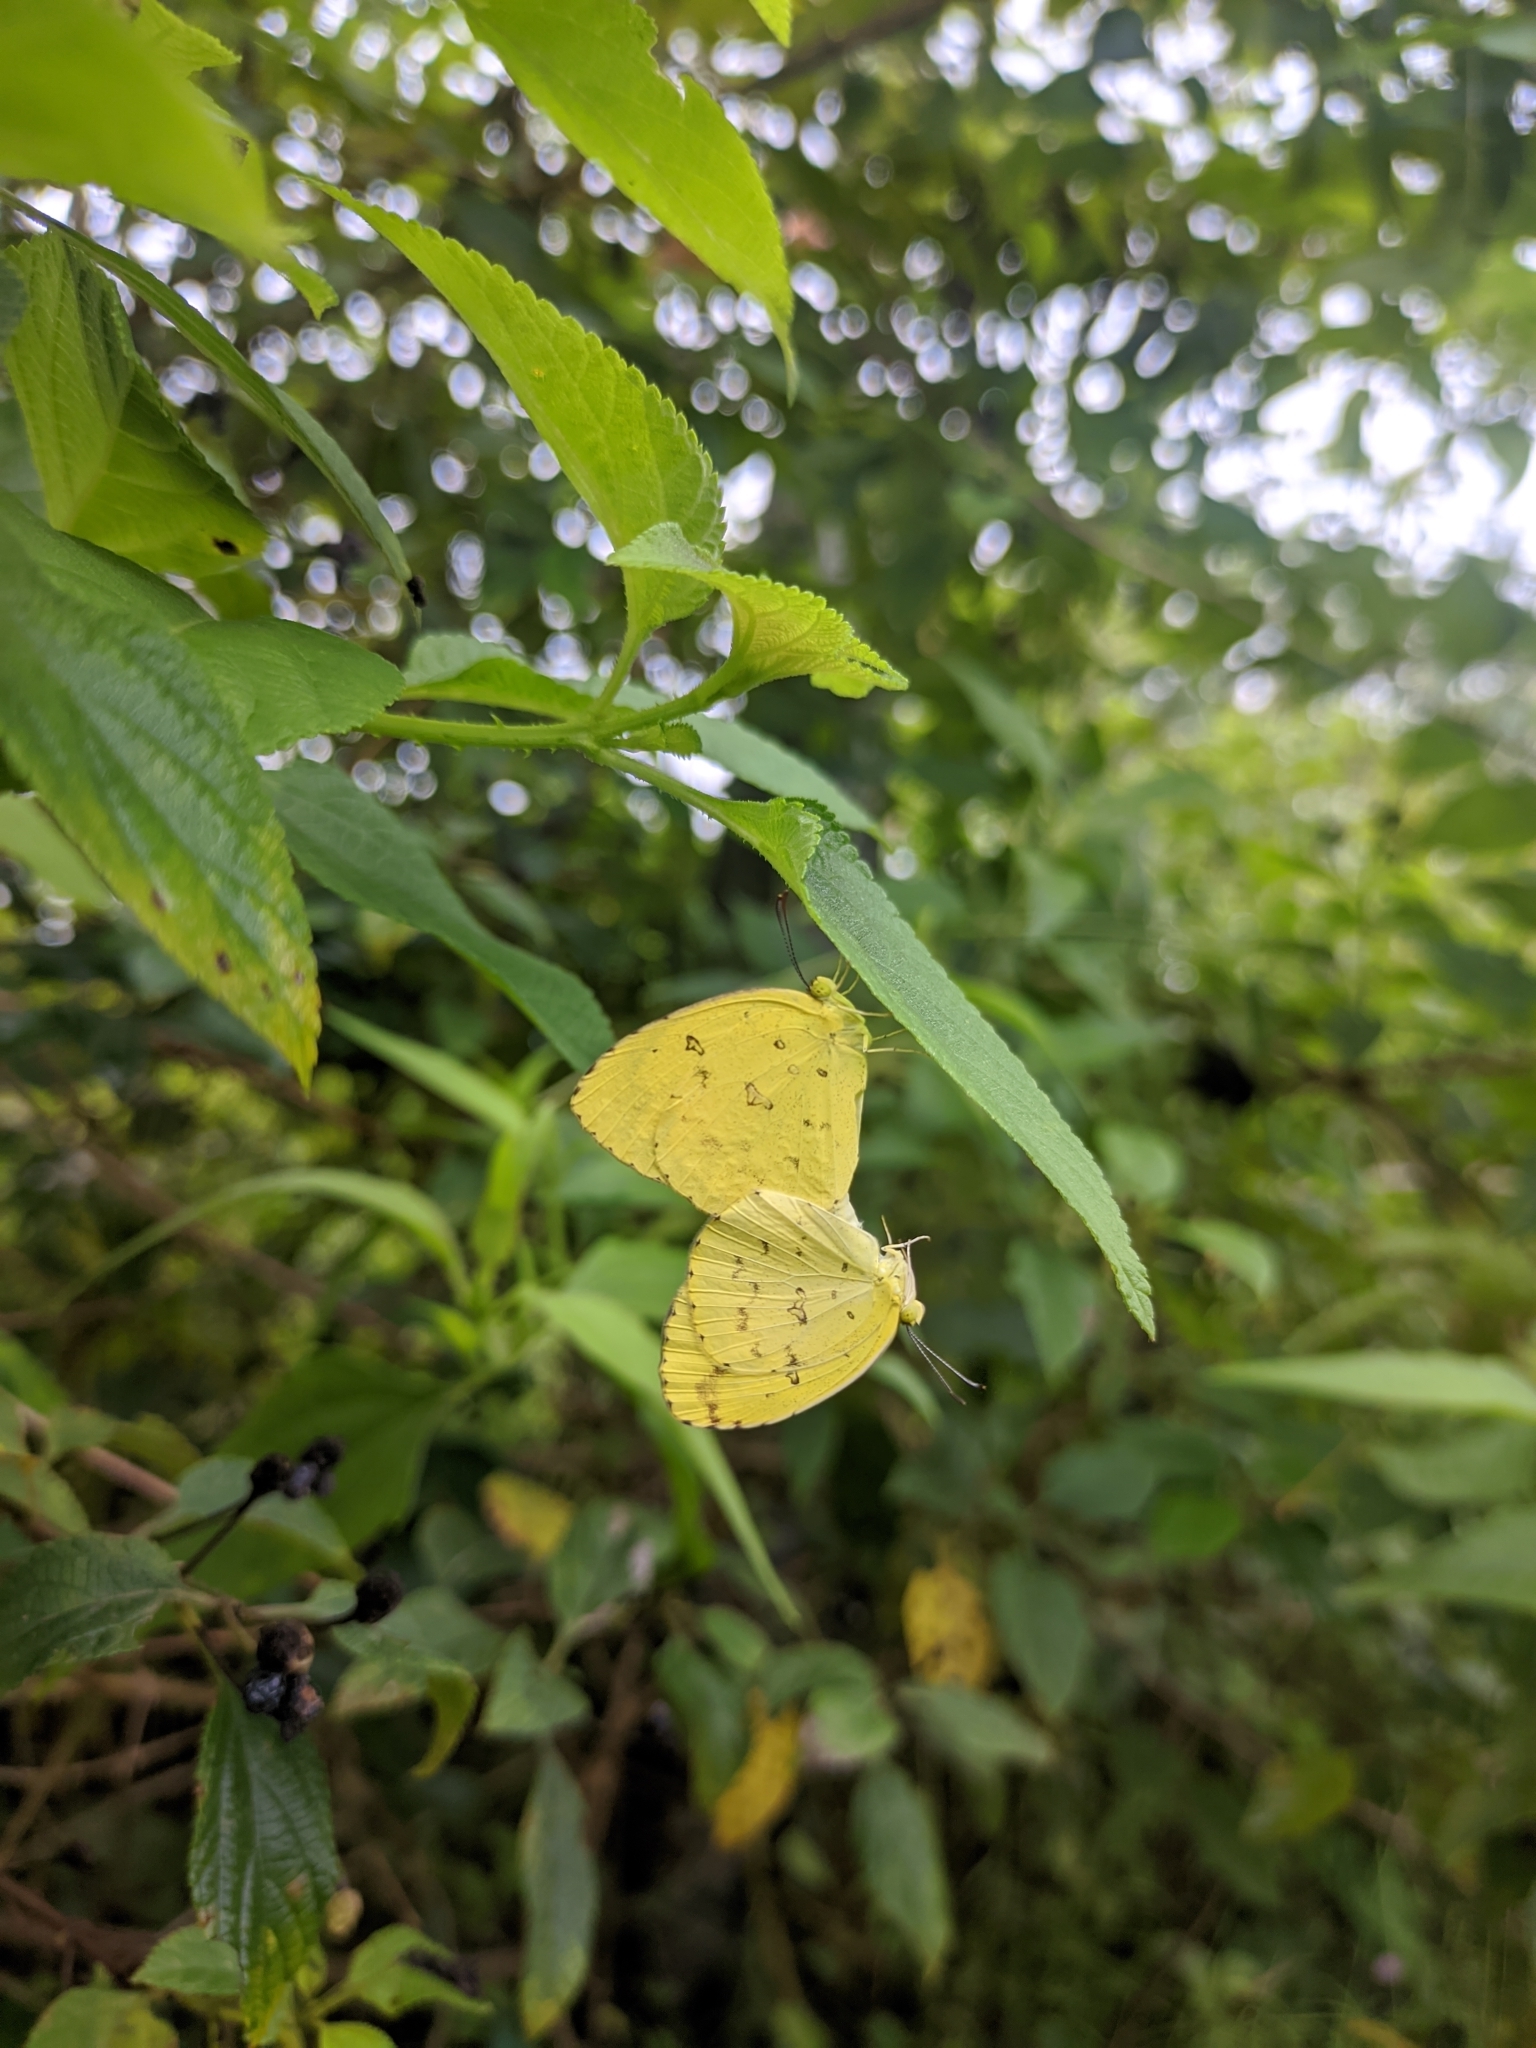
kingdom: Animalia
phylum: Arthropoda
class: Insecta
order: Lepidoptera
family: Pieridae
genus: Eurema
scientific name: Eurema hecabe
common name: Pale grass yellow
